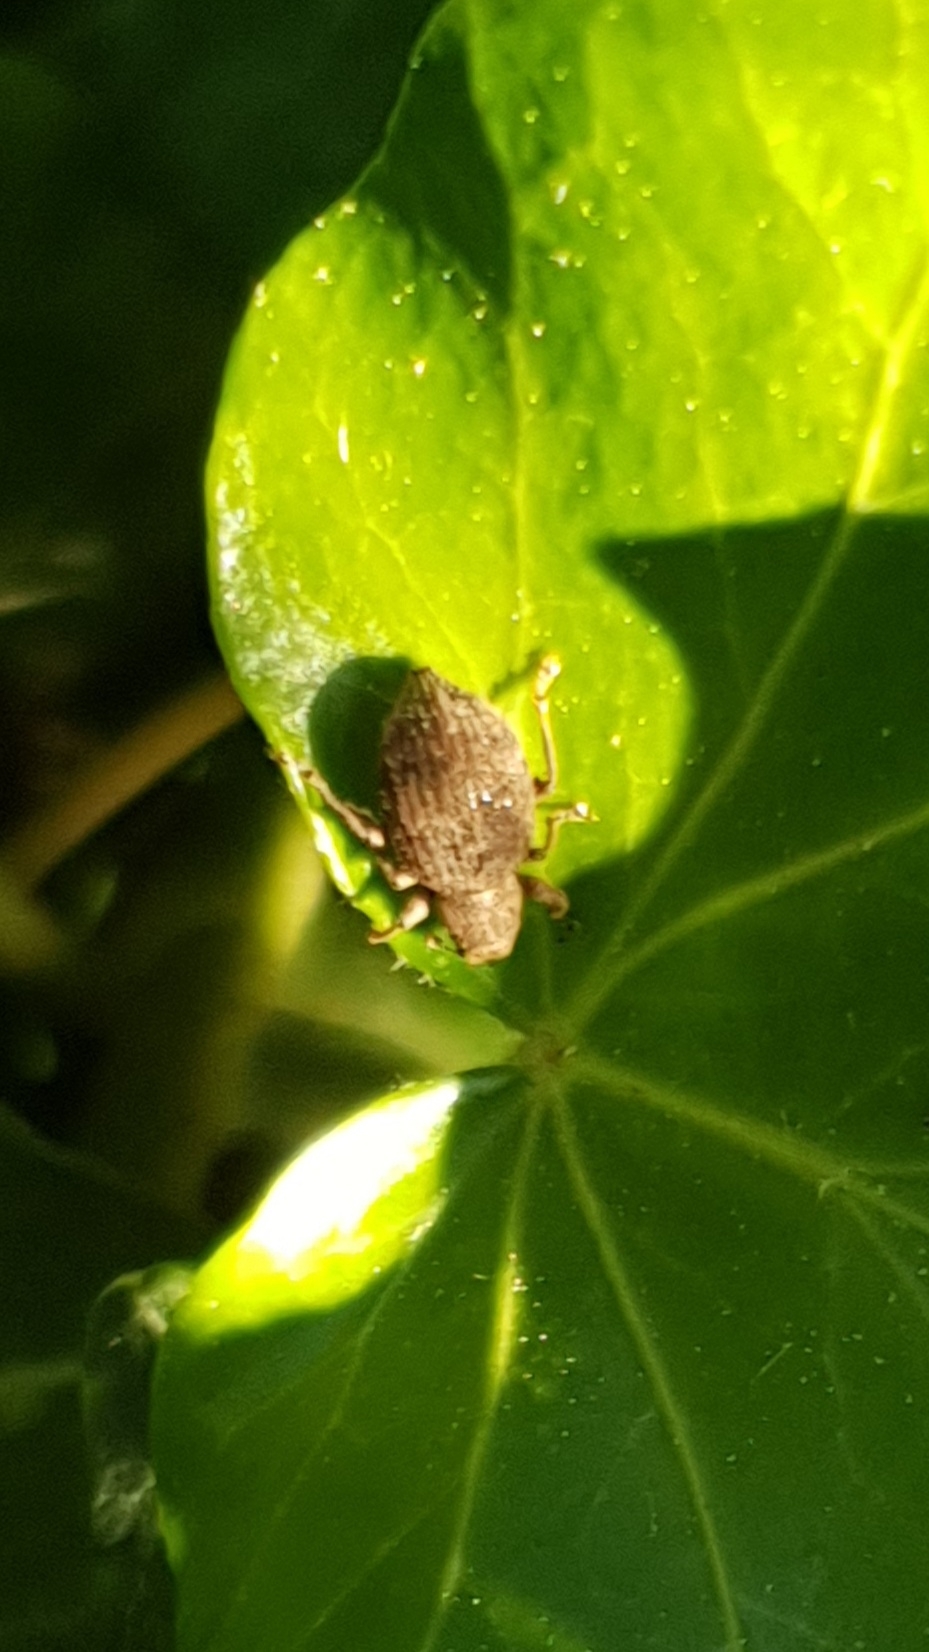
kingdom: Animalia
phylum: Arthropoda
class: Insecta
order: Coleoptera
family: Curculionidae
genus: Sciaphilus
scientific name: Sciaphilus asperatus
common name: Weevil
